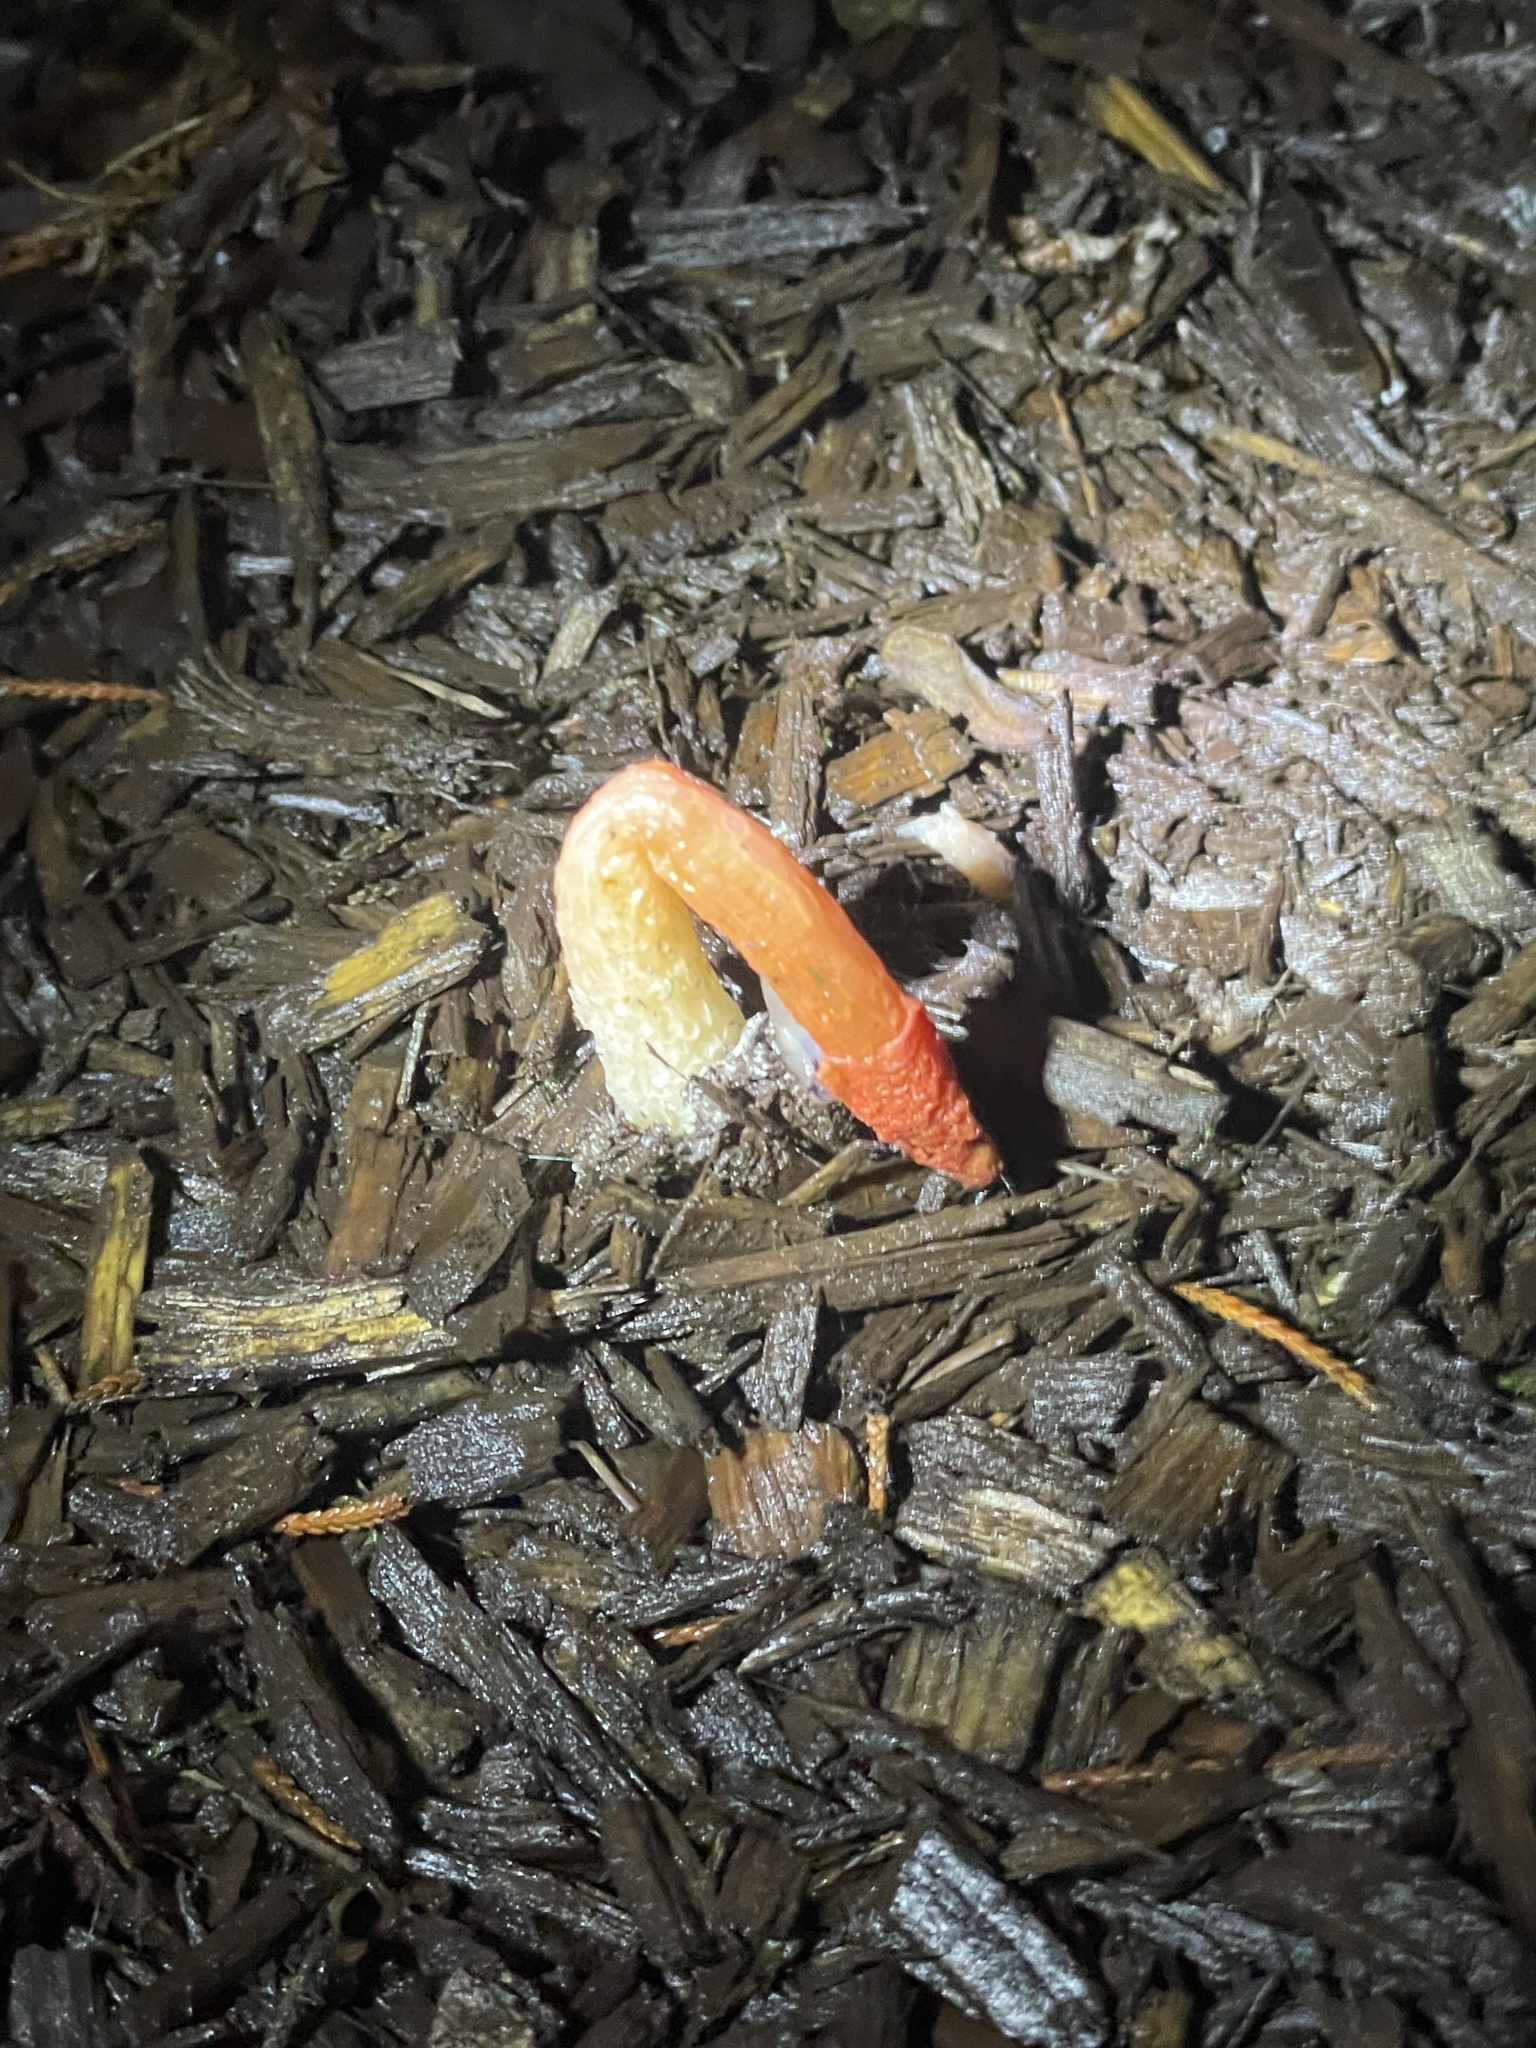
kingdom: Fungi
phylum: Basidiomycota
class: Agaricomycetes
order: Phallales
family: Phallaceae
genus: Phallus
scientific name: Phallus rugulosus
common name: Wrinkly stinkhorn
